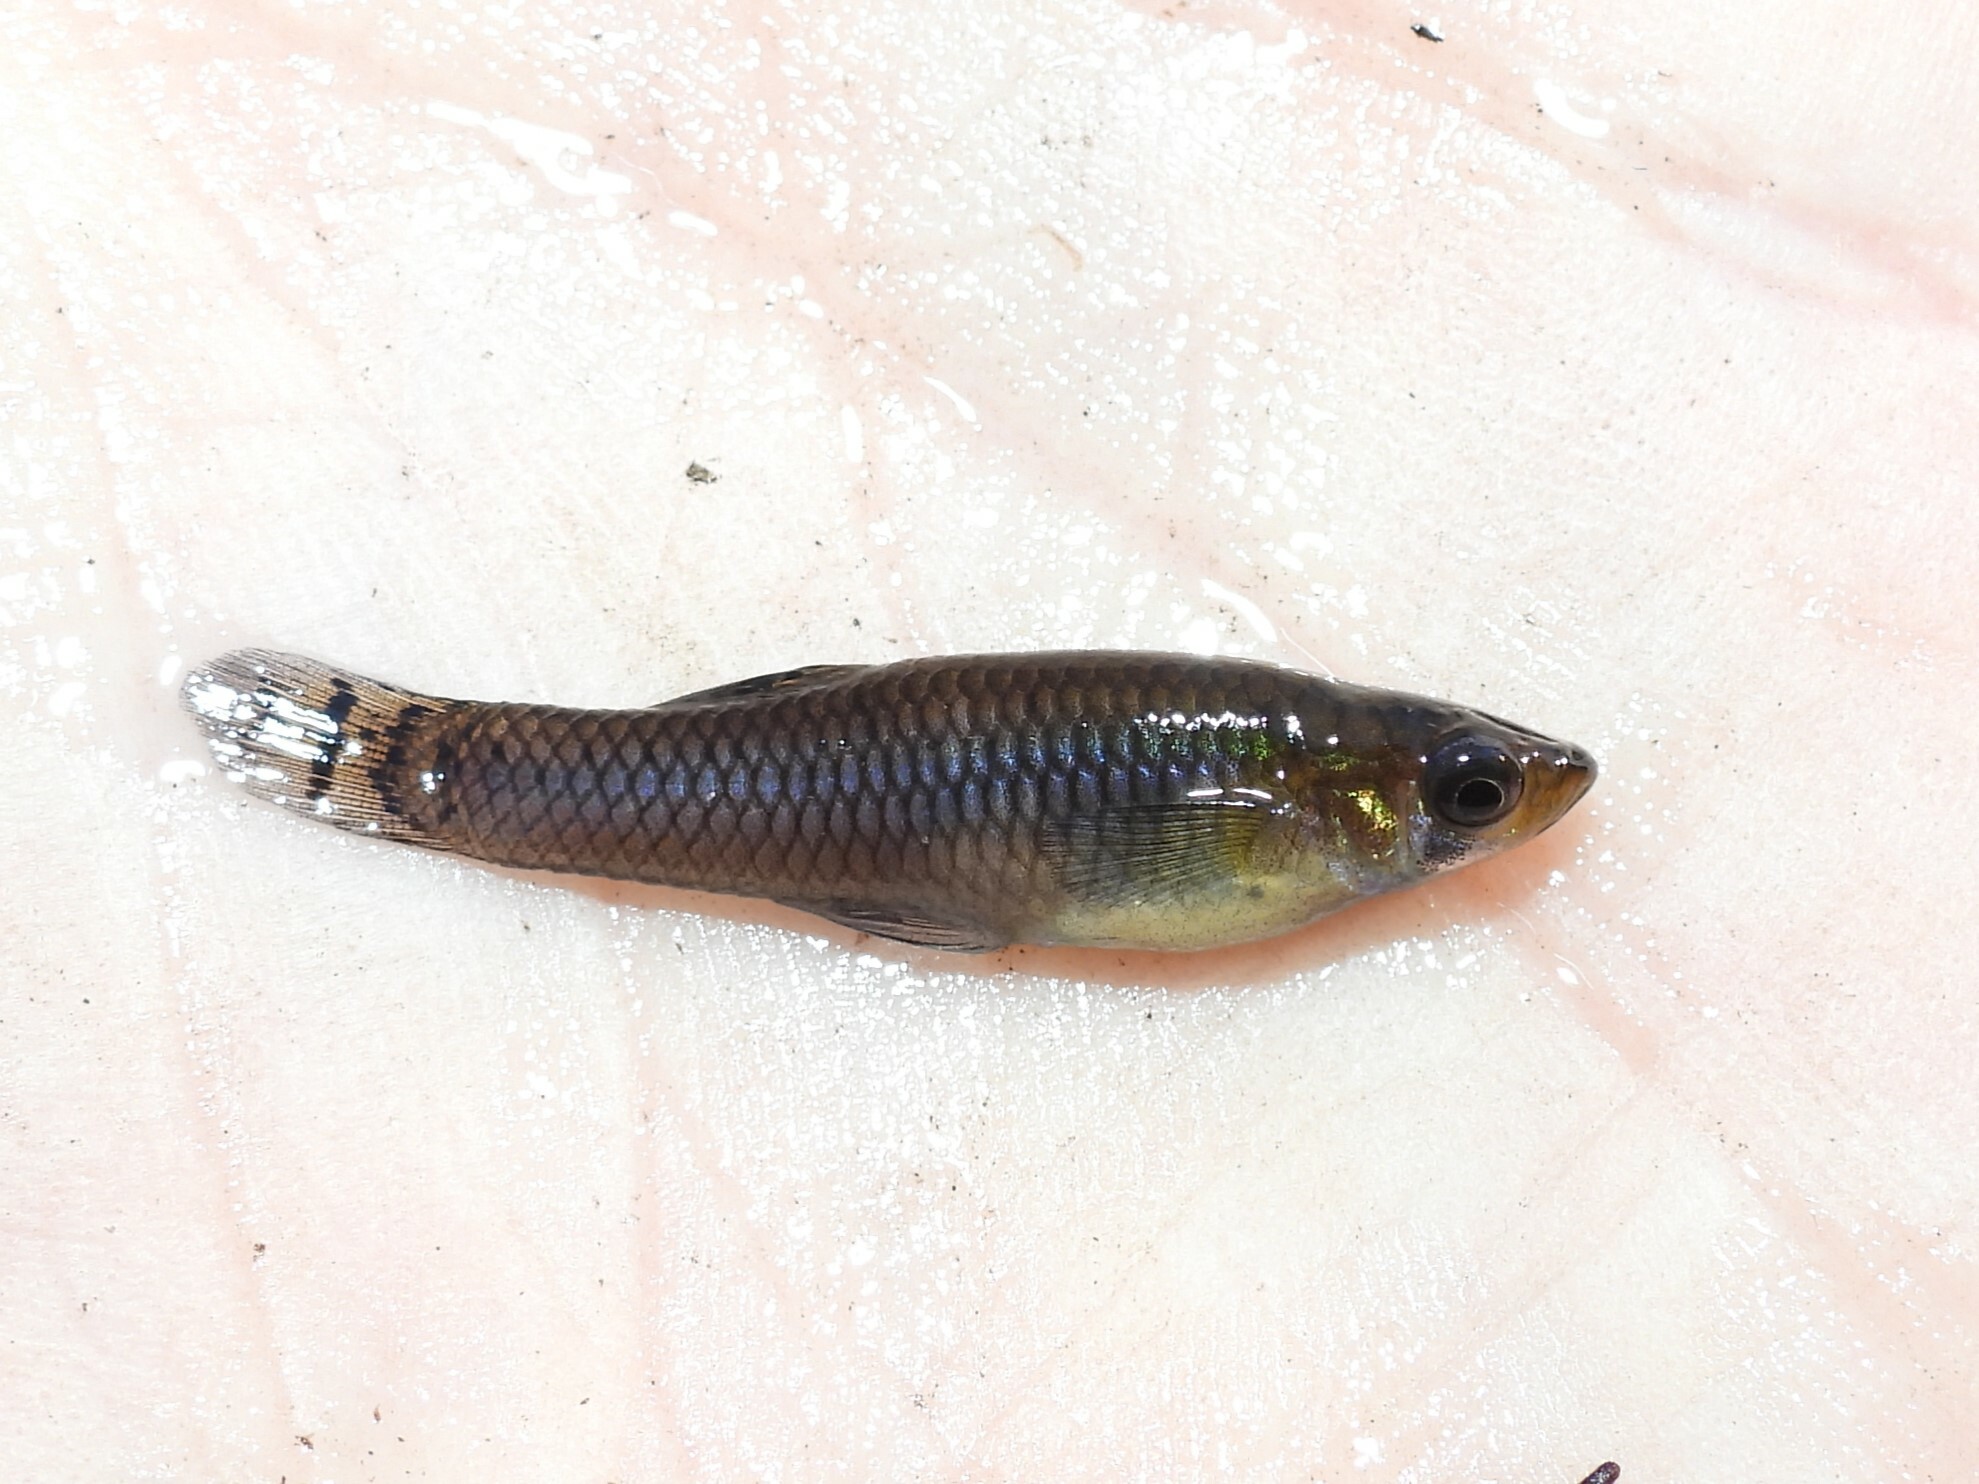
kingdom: Animalia
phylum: Chordata
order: Cyprinodontiformes
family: Poeciliidae
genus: Gambusia
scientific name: Gambusia holbrooki
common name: Eastern mosquitofish
